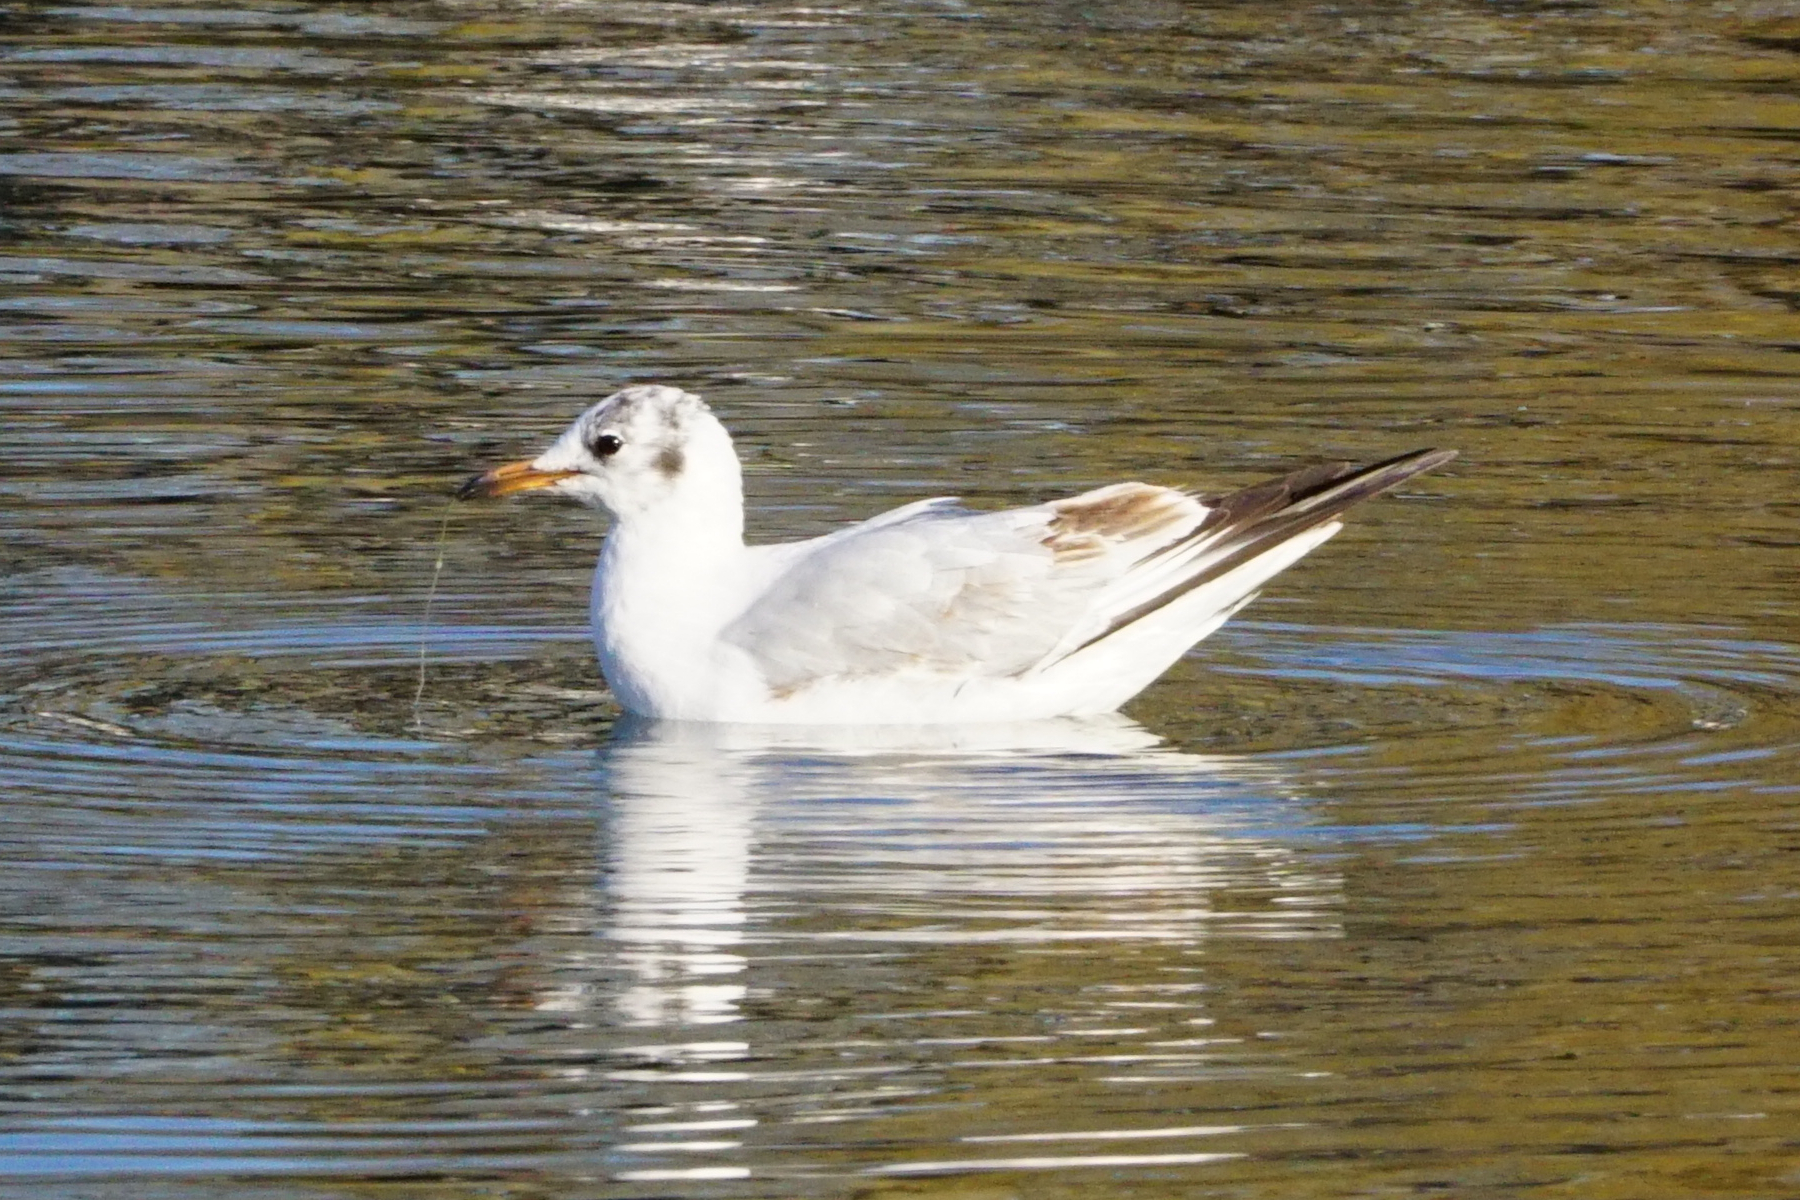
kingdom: Animalia
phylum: Chordata
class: Aves
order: Charadriiformes
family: Laridae
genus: Chroicocephalus
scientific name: Chroicocephalus ridibundus
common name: Black-headed gull
